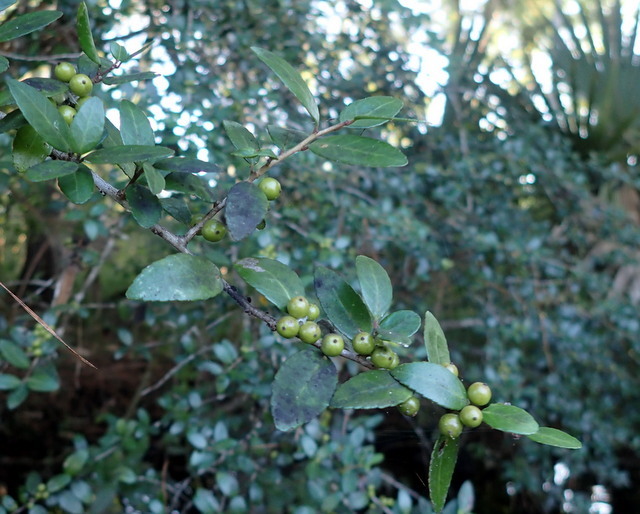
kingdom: Plantae
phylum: Tracheophyta
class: Magnoliopsida
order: Aquifoliales
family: Aquifoliaceae
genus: Ilex
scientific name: Ilex vomitoria
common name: Yaupon holly
